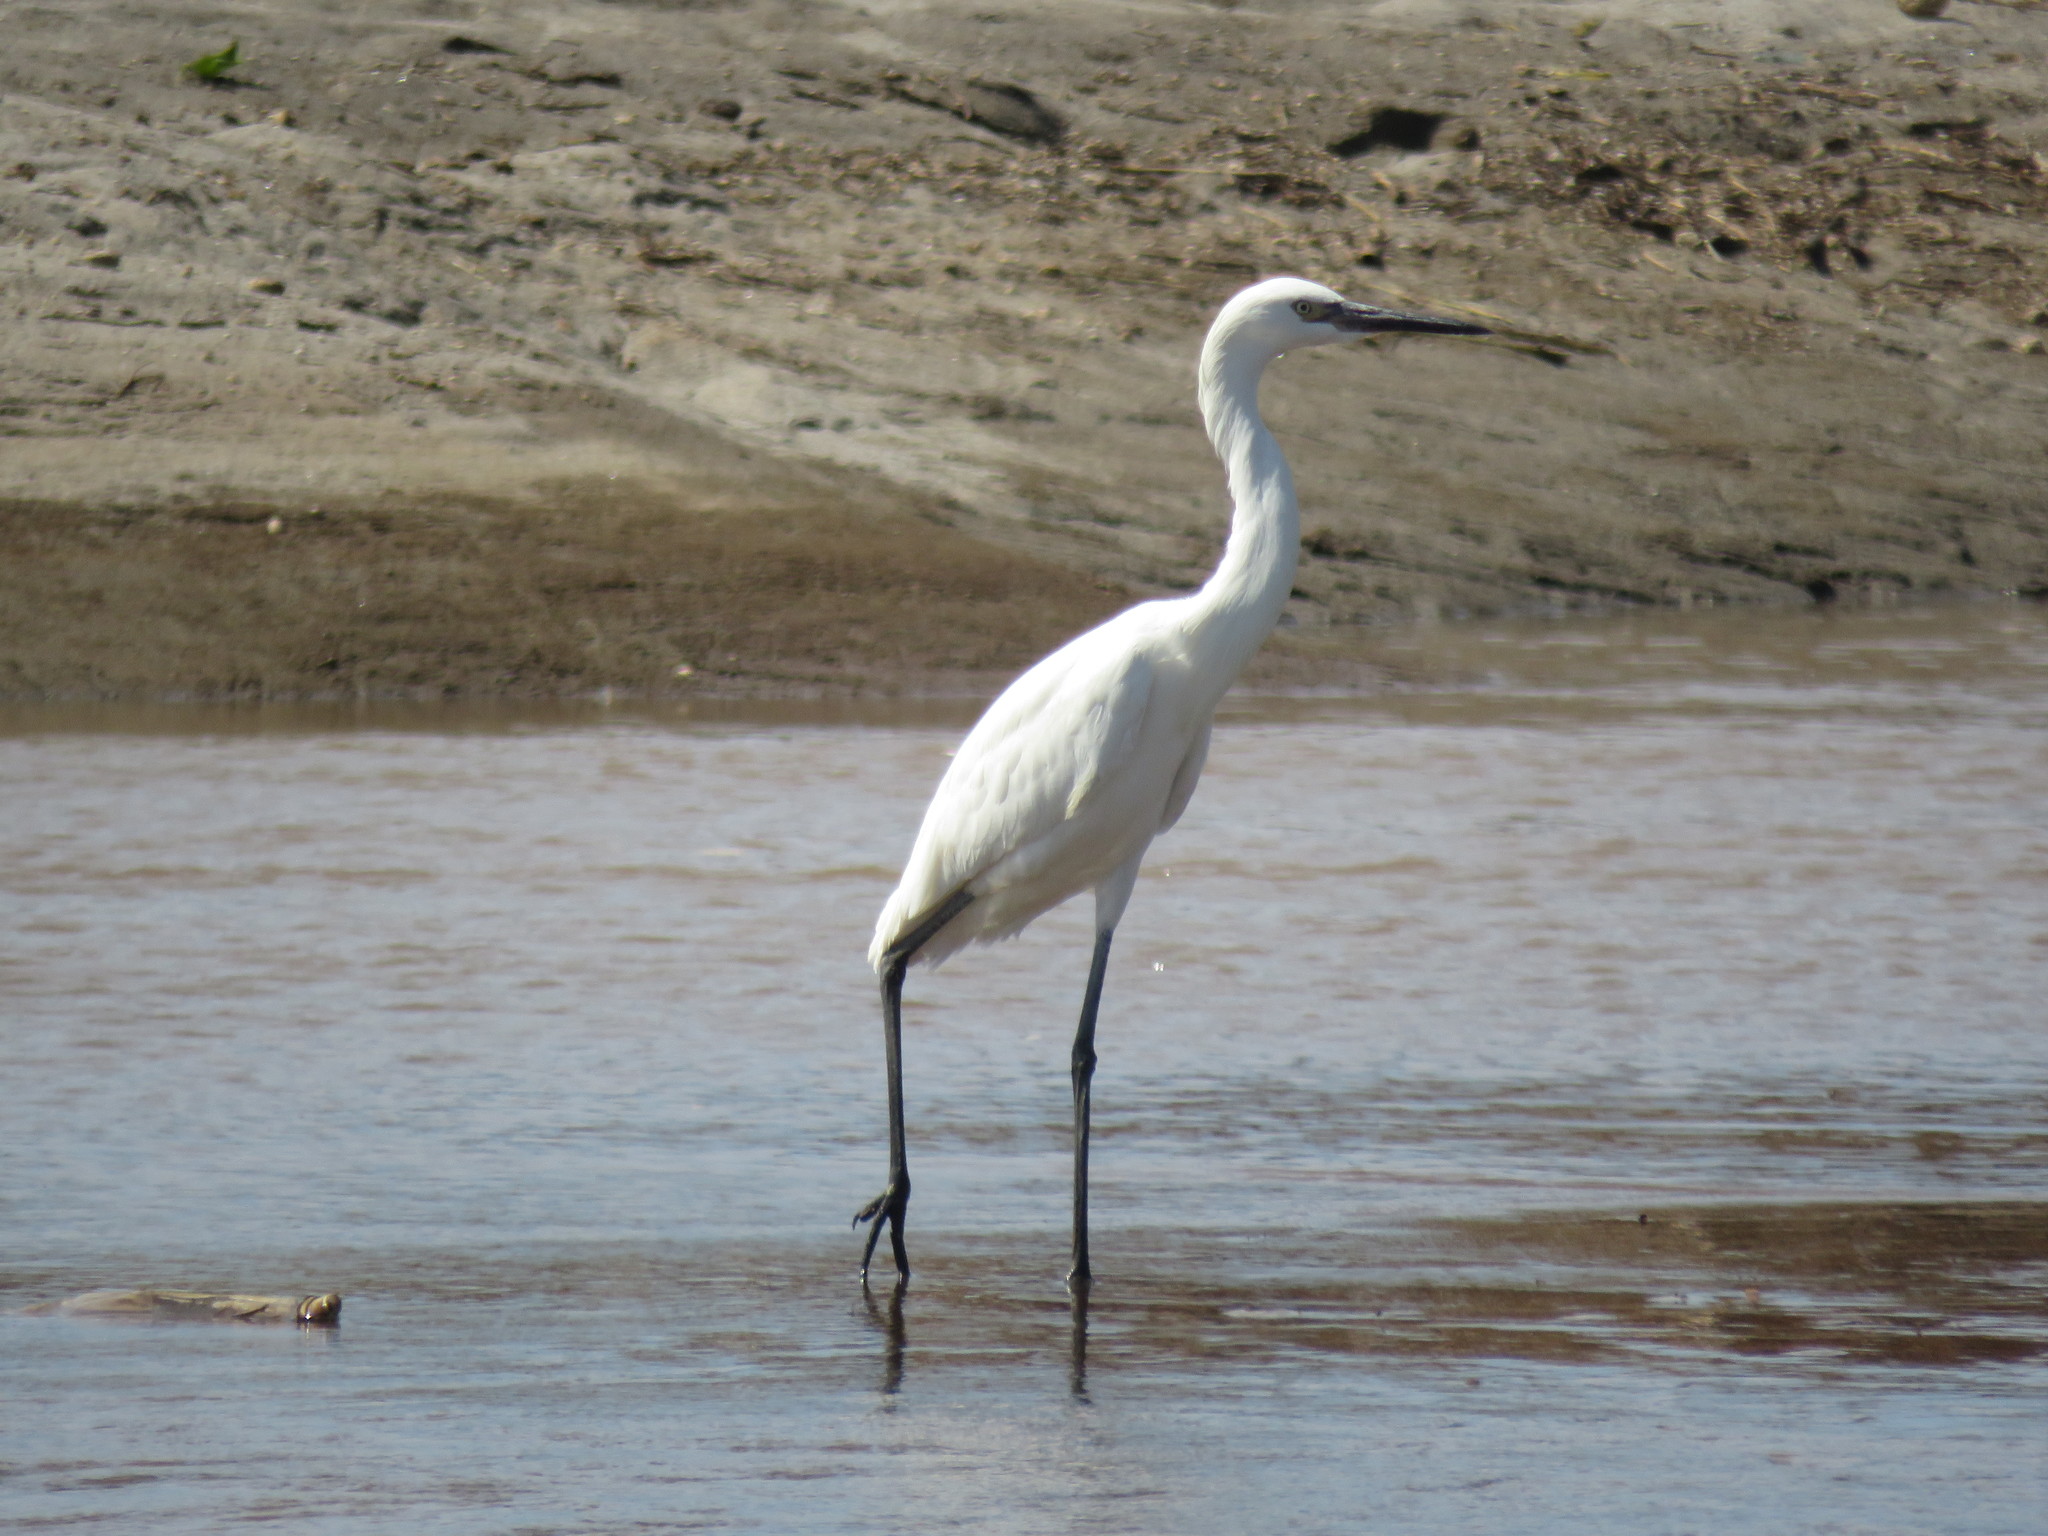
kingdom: Animalia
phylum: Chordata
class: Aves
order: Pelecaniformes
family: Ardeidae
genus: Egretta
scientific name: Egretta rufescens
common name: Reddish egret
